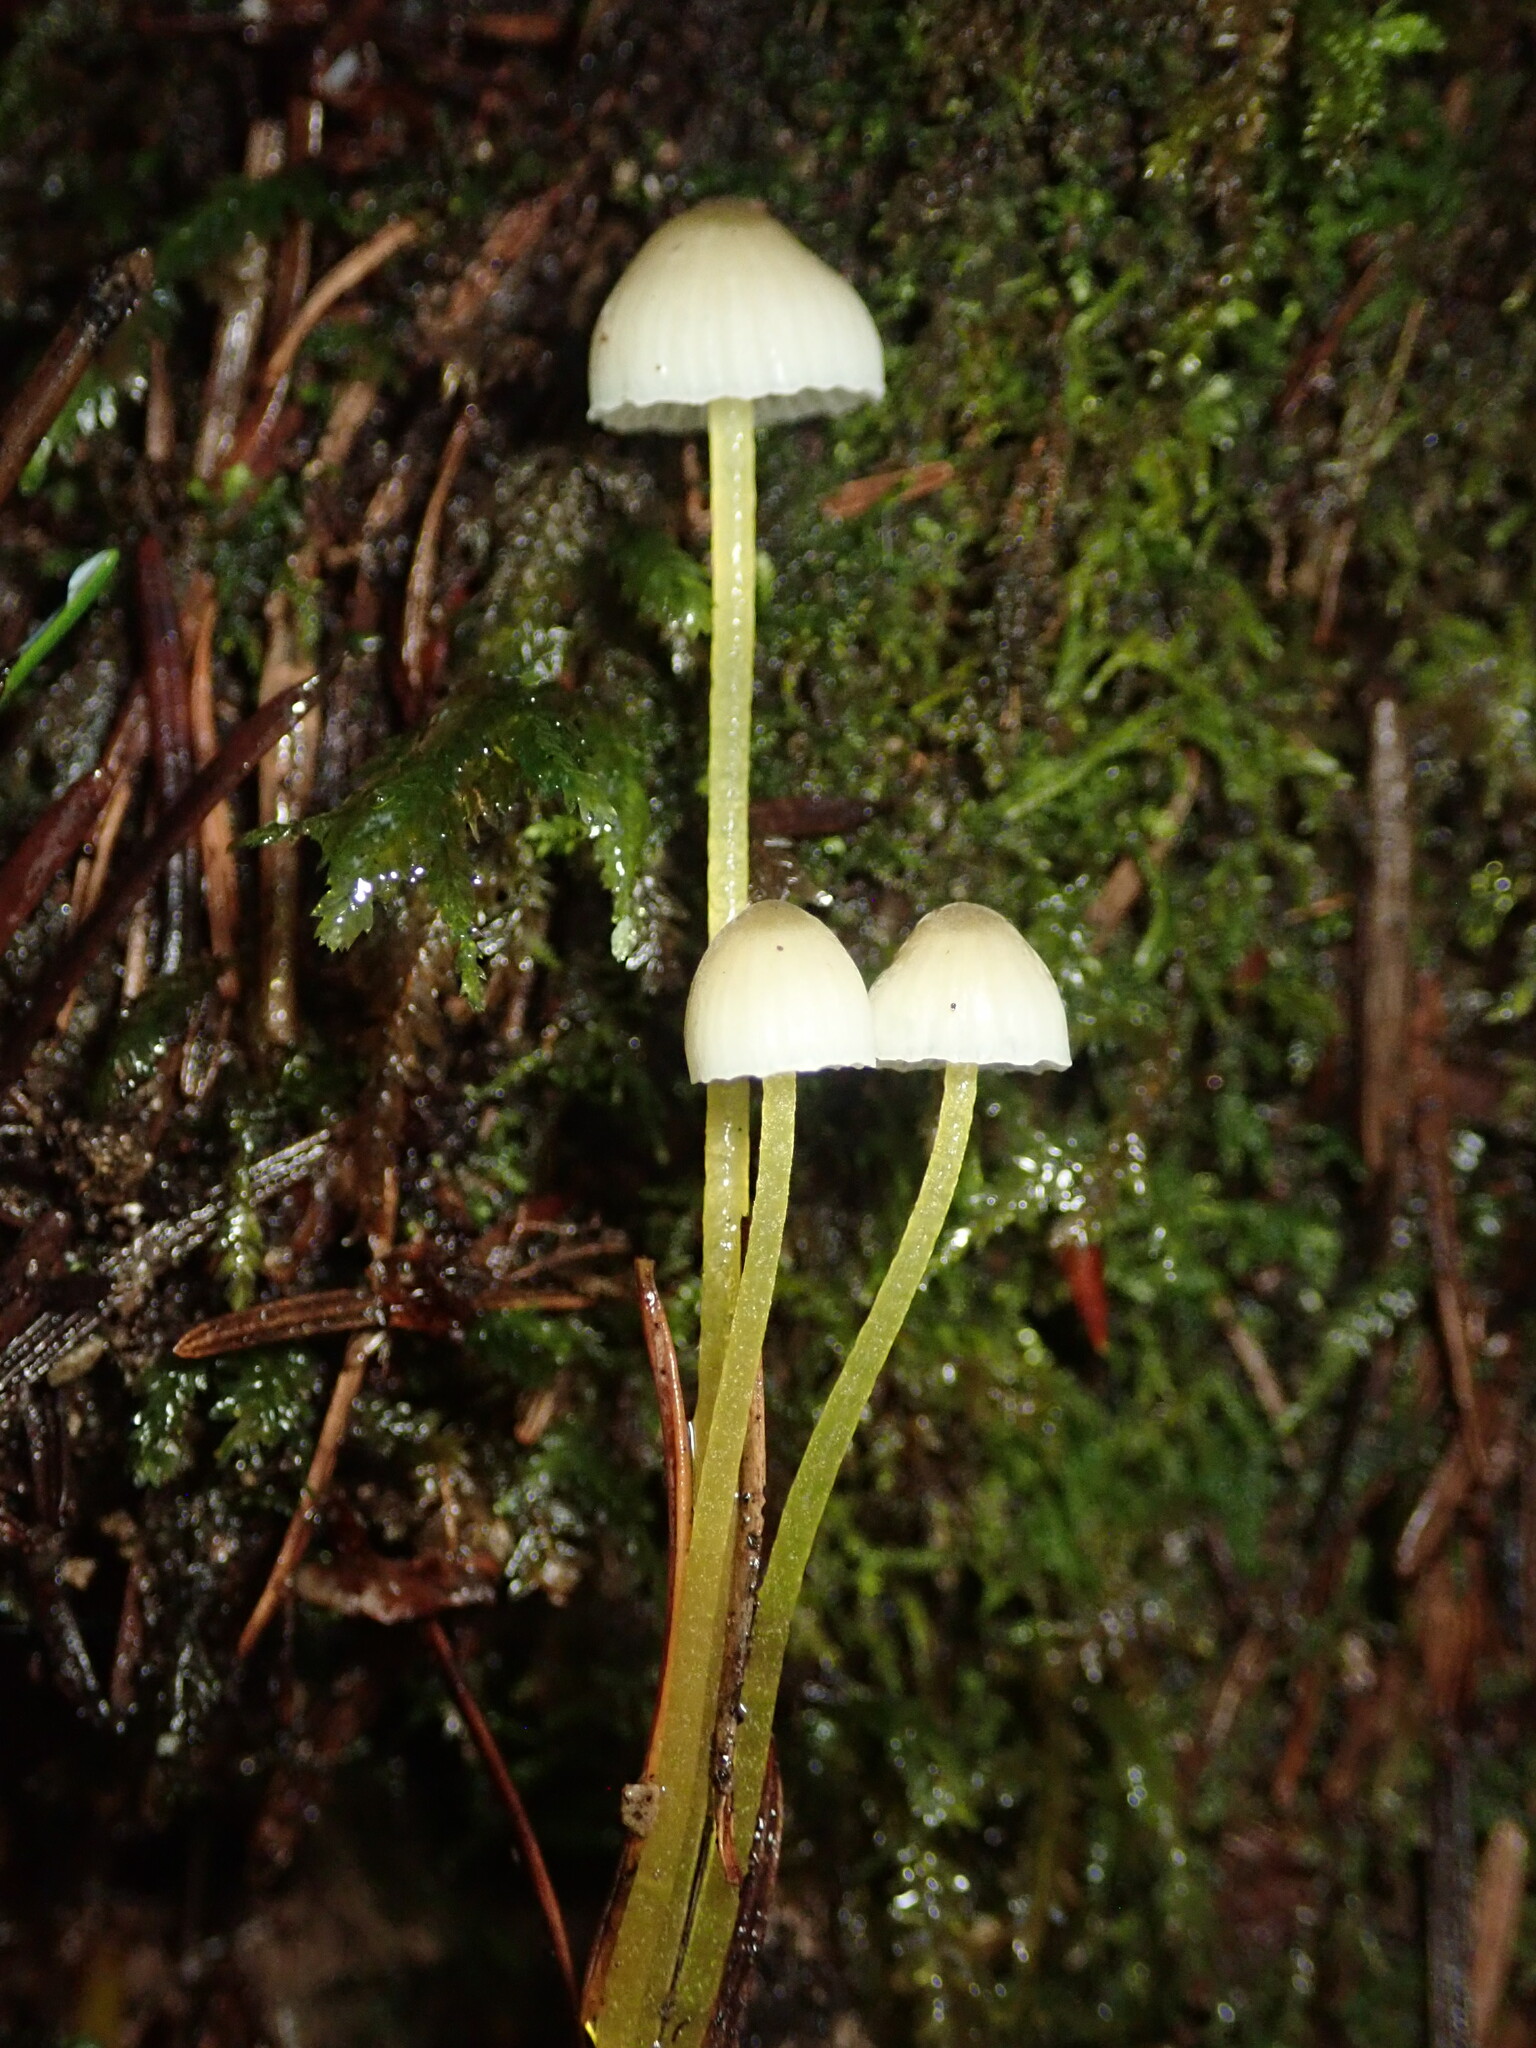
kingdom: Fungi
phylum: Basidiomycota
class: Agaricomycetes
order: Agaricales
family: Mycenaceae
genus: Mycena
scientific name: Mycena epipterygia
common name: Yellowleg bonnet
